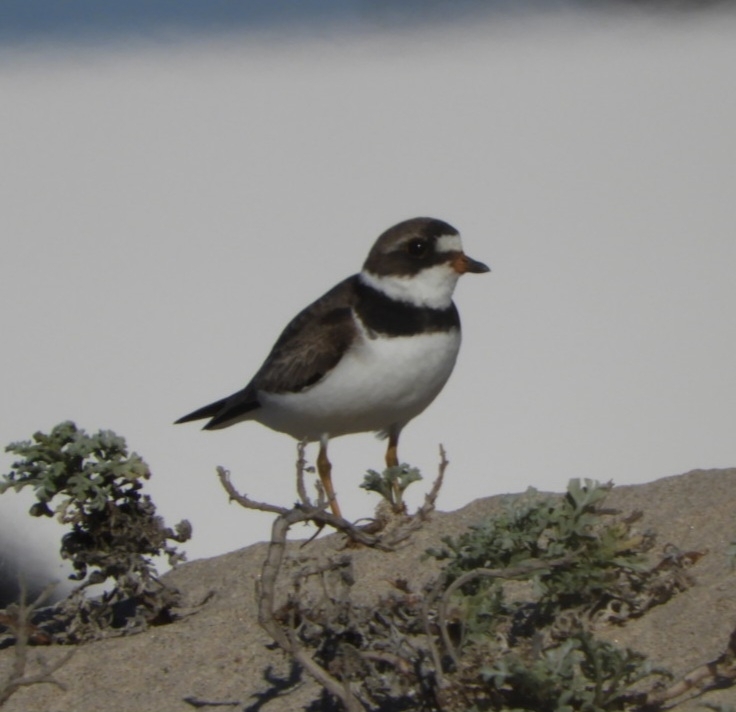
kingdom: Animalia
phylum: Chordata
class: Aves
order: Charadriiformes
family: Charadriidae
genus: Charadrius
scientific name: Charadrius semipalmatus
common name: Semipalmated plover
